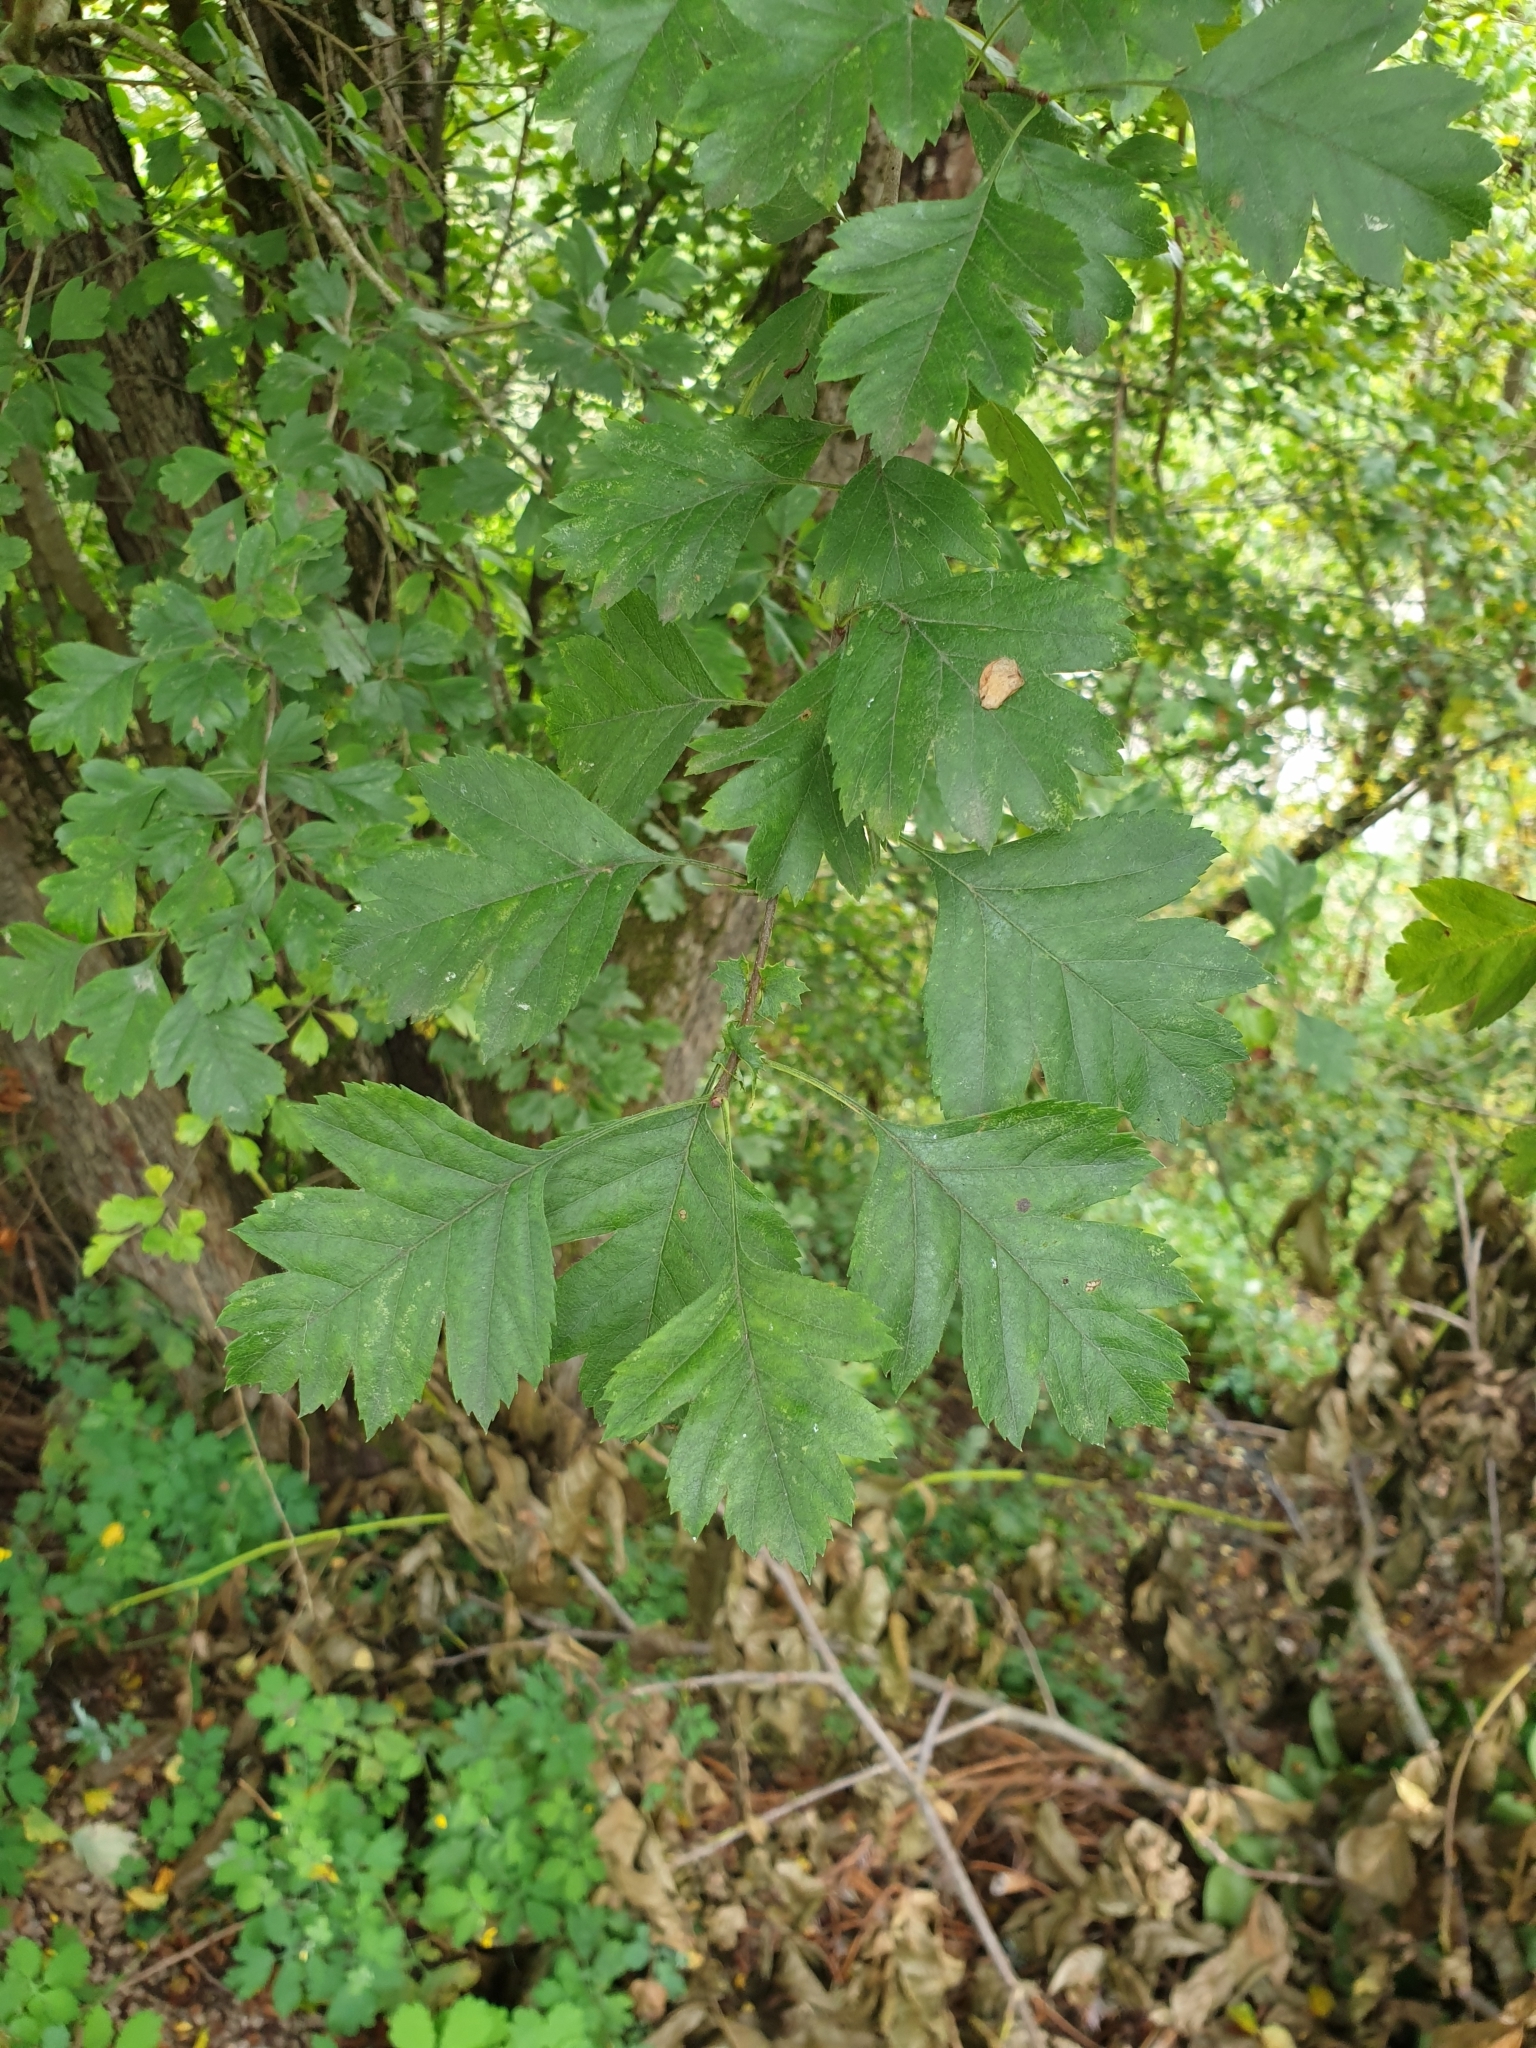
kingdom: Plantae
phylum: Tracheophyta
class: Magnoliopsida
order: Rosales
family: Rosaceae
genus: Crataegus
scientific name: Crataegus monogyna
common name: Hawthorn
